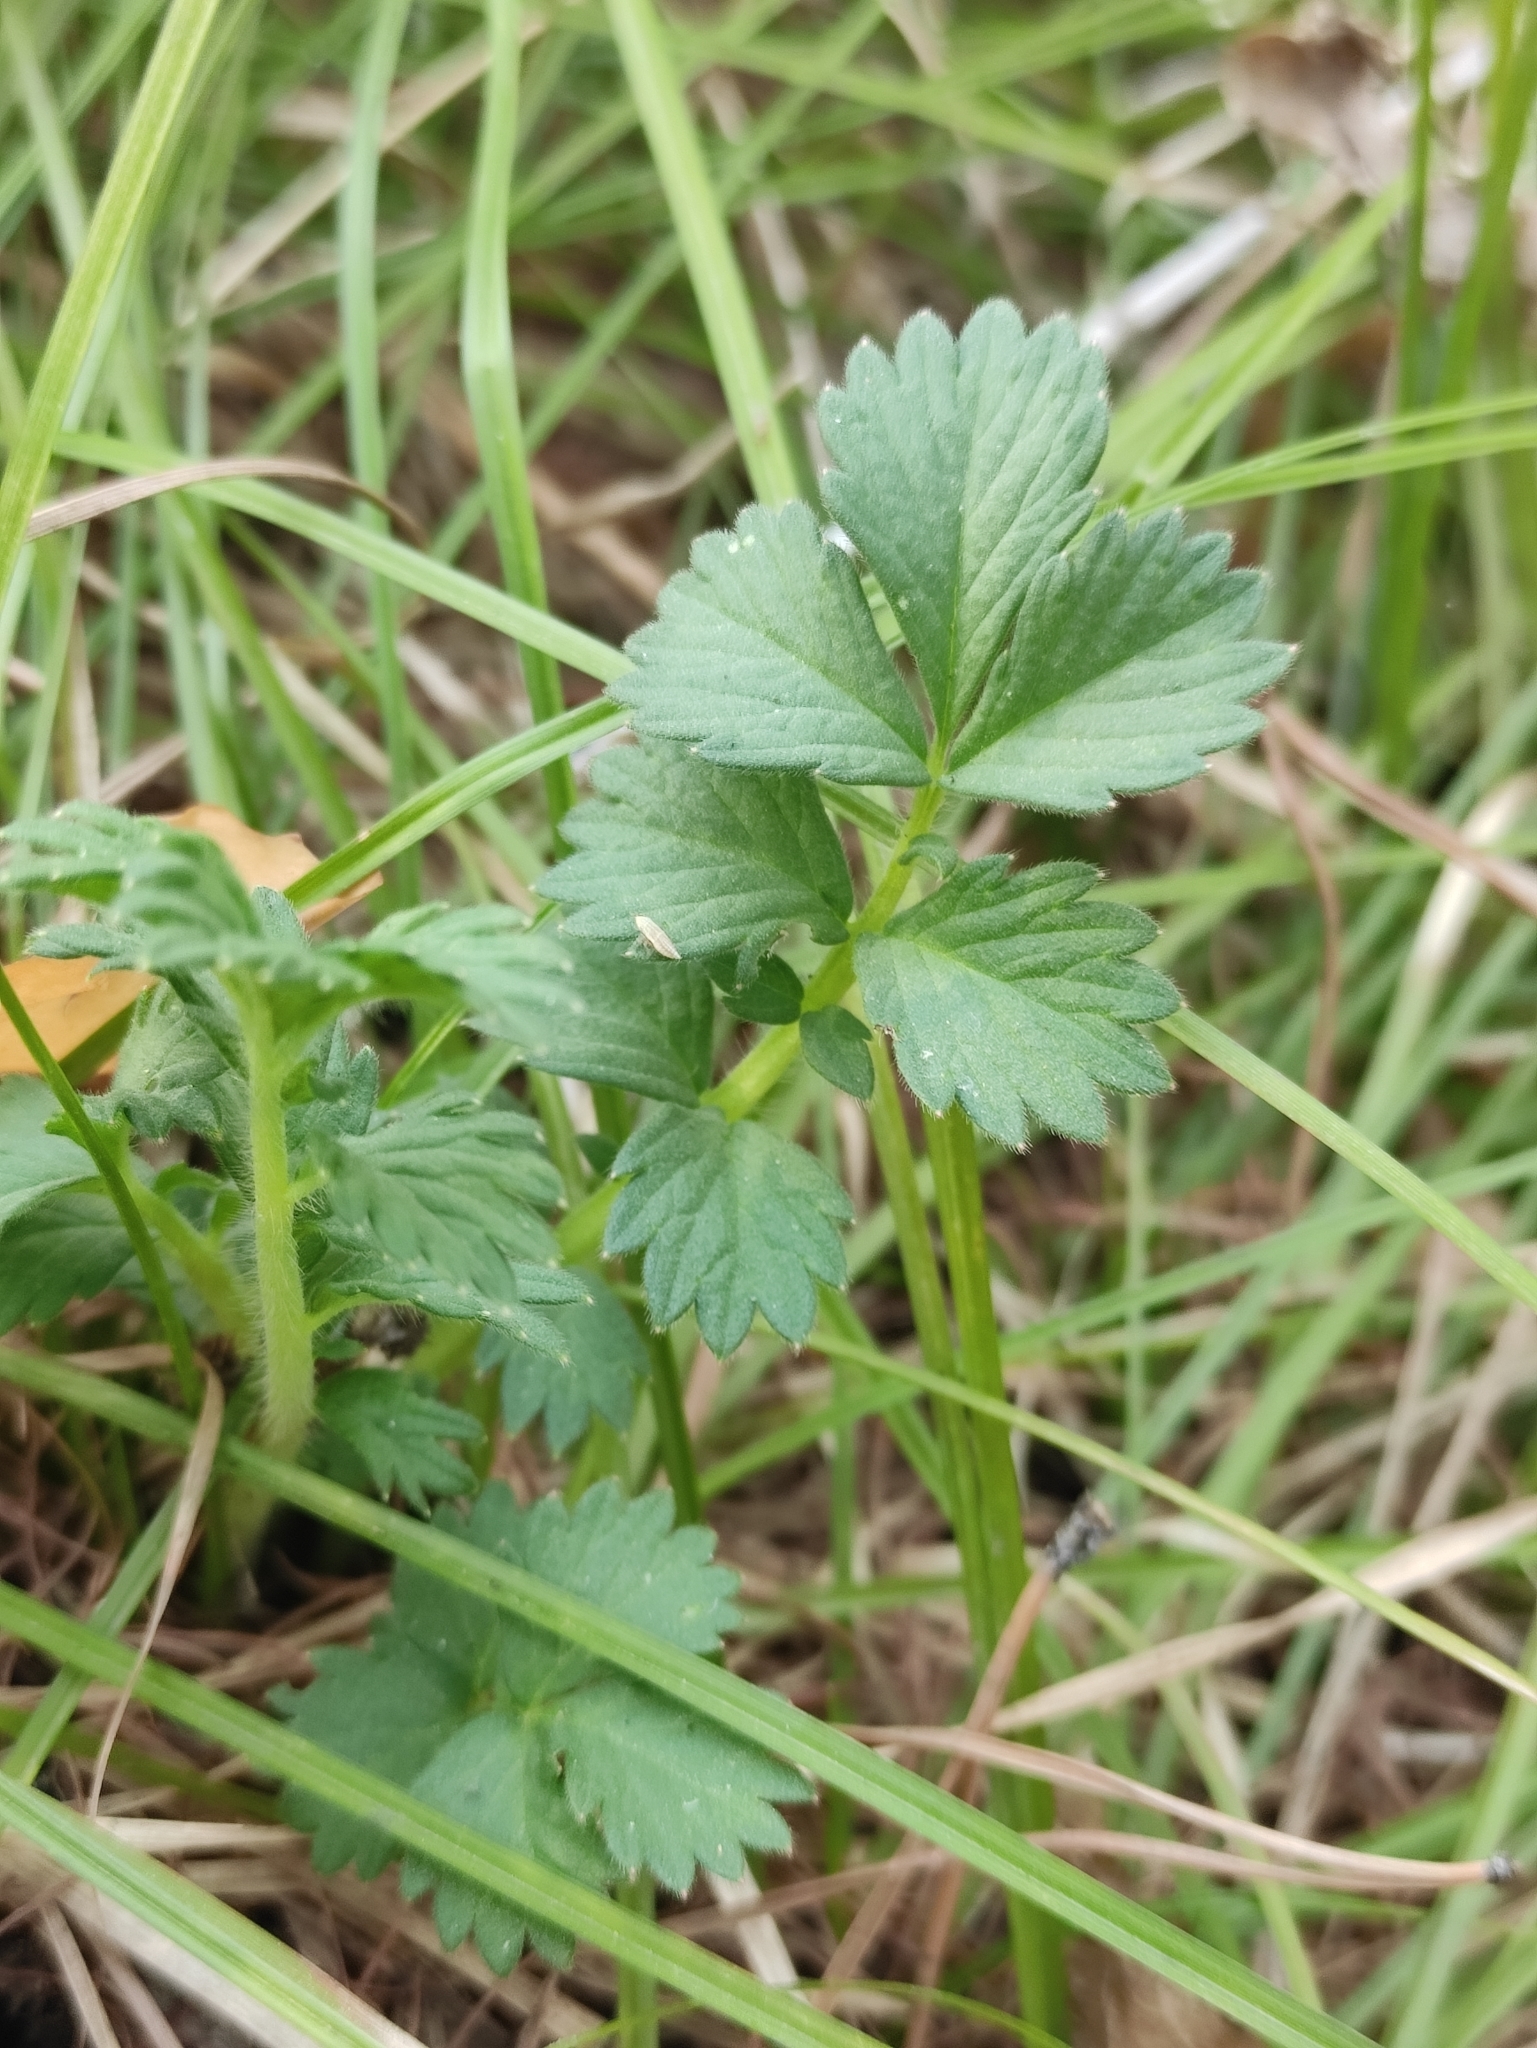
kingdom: Plantae
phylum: Tracheophyta
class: Magnoliopsida
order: Rosales
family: Rosaceae
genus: Agrimonia
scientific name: Agrimonia pilosa
